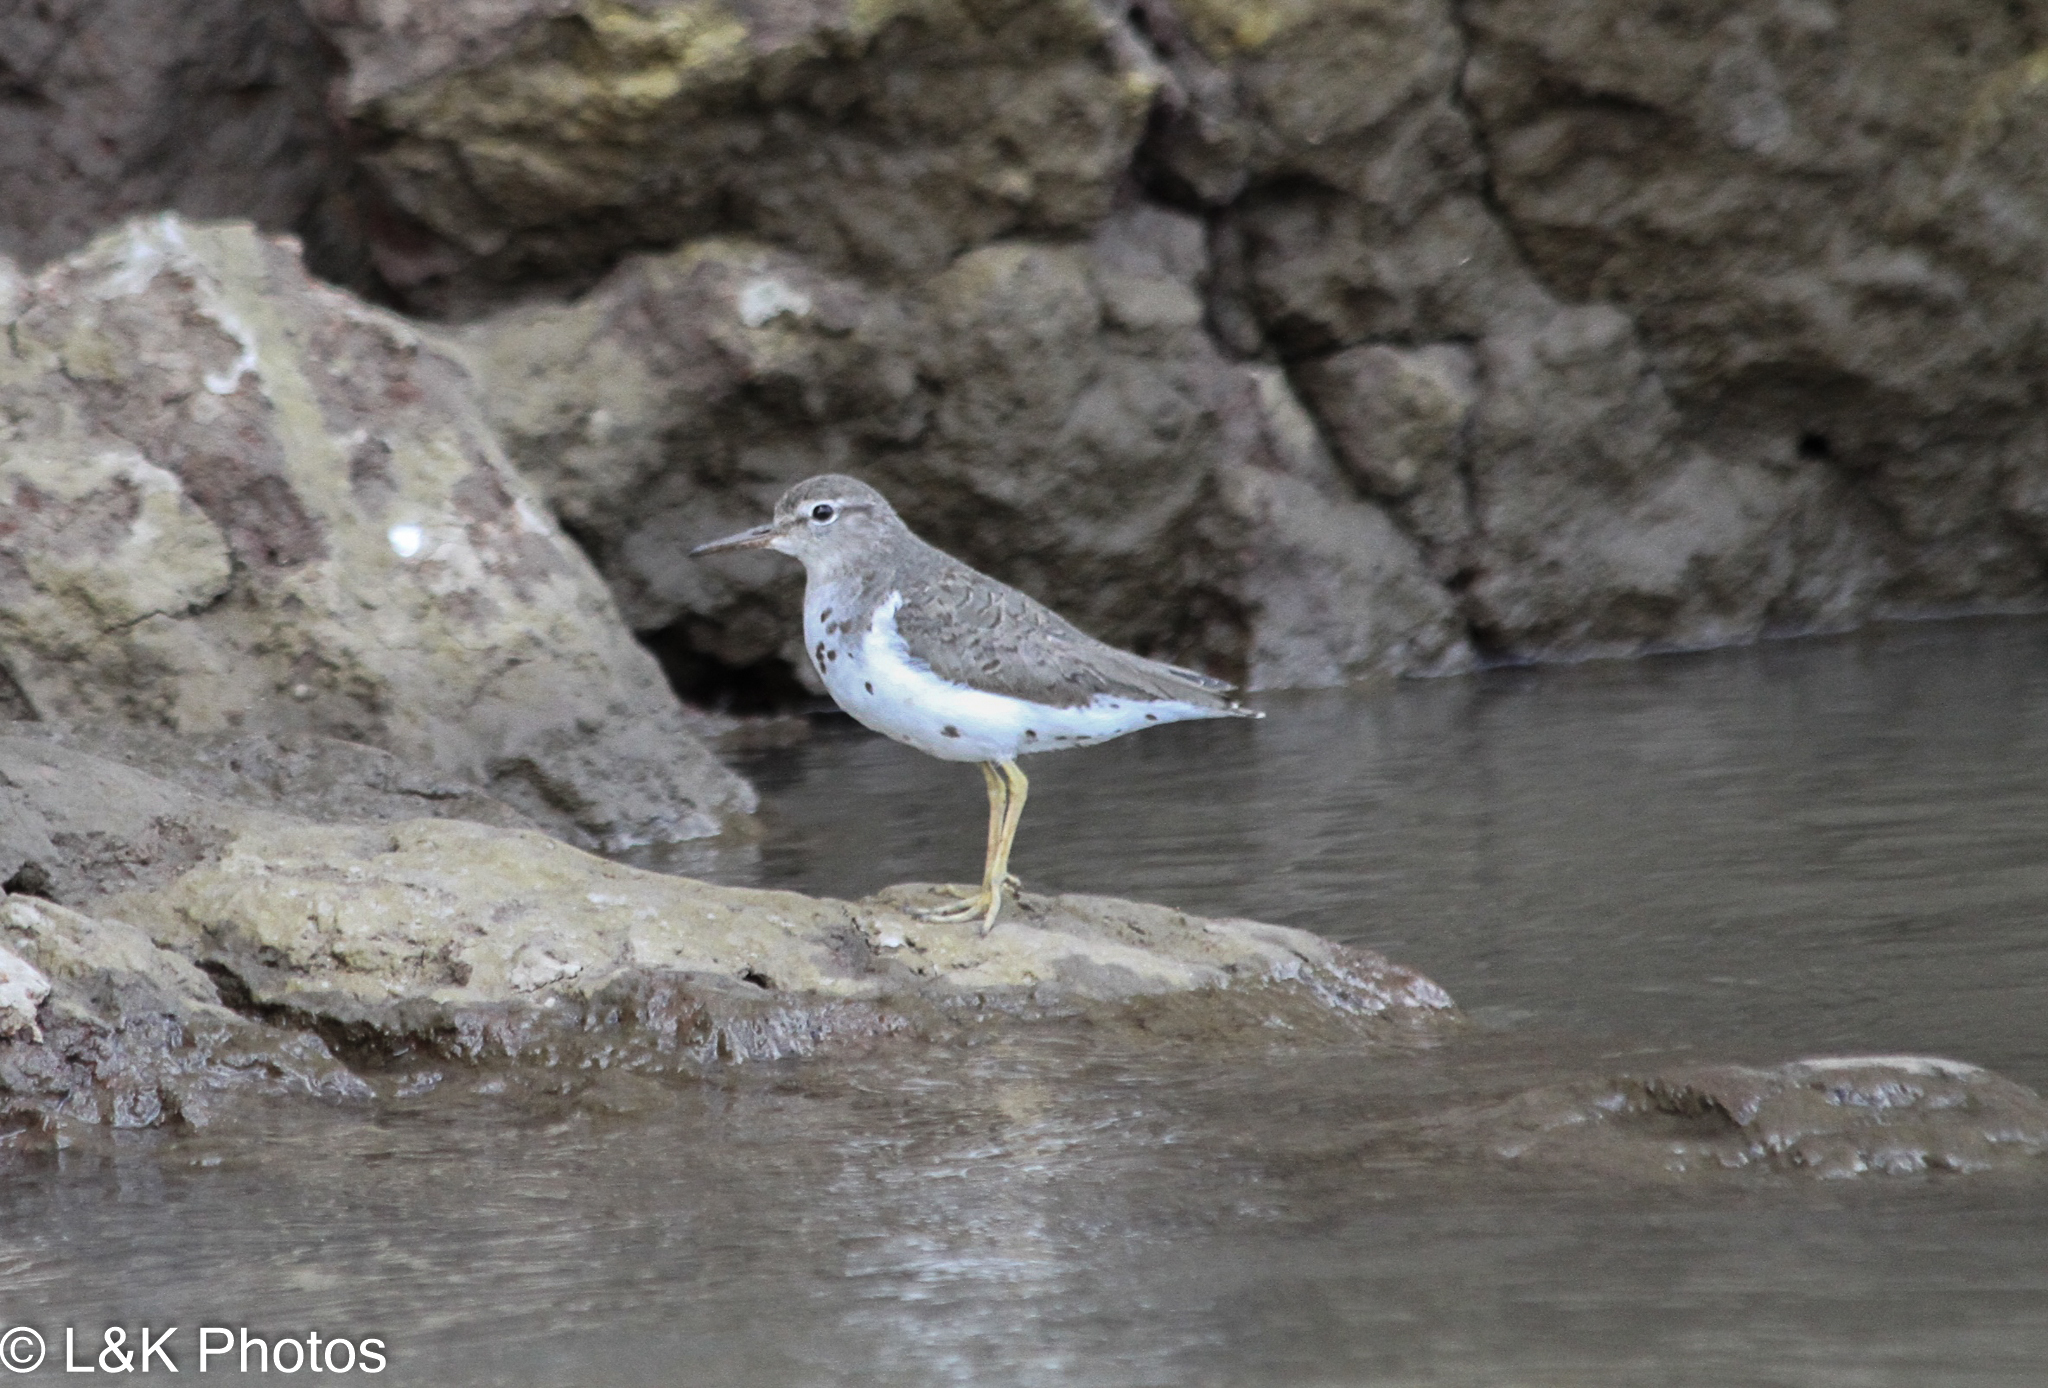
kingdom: Animalia
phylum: Chordata
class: Aves
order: Charadriiformes
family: Scolopacidae
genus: Actitis
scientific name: Actitis macularius
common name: Spotted sandpiper
